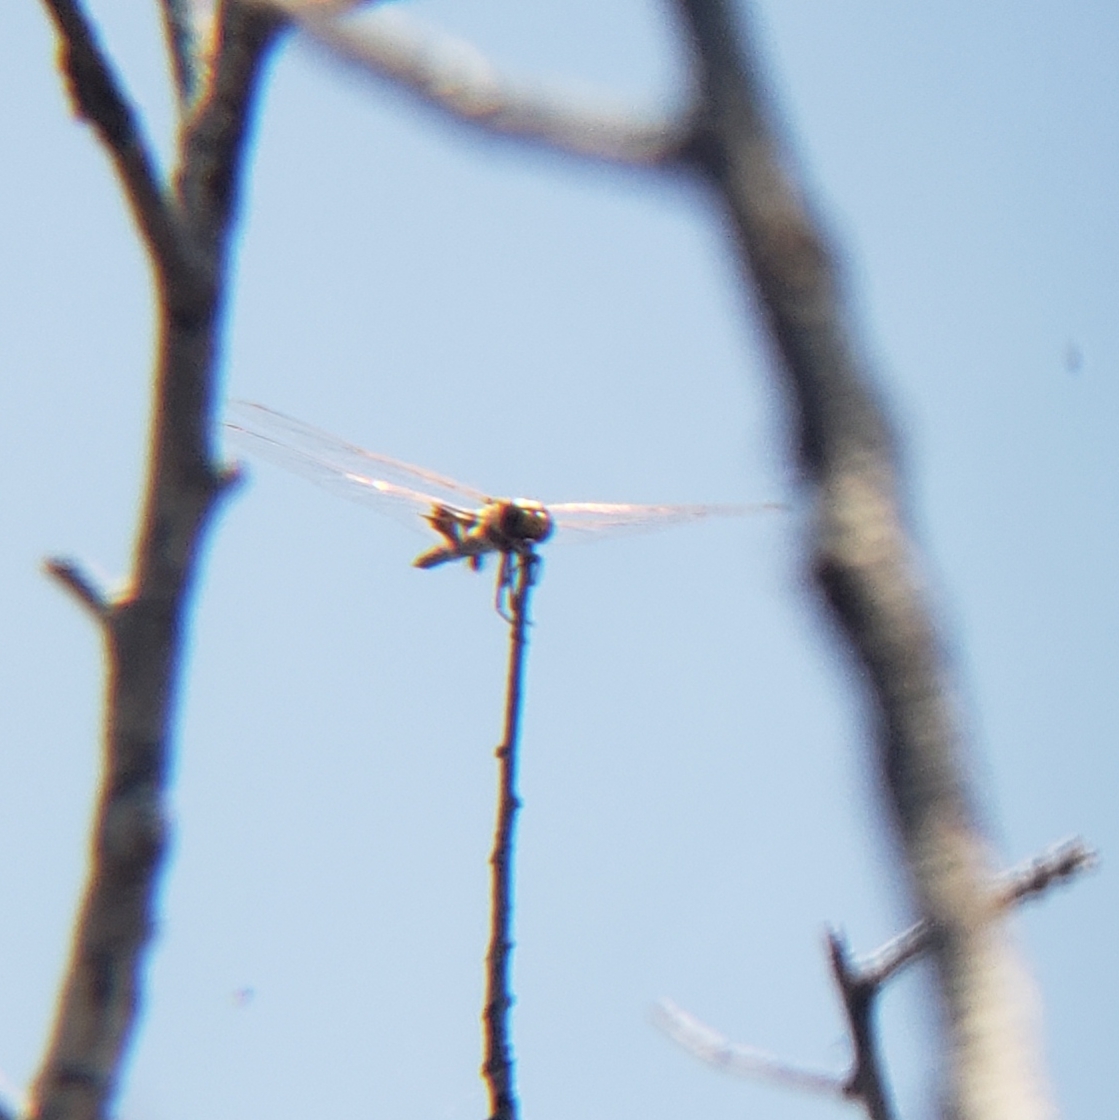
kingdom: Animalia
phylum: Arthropoda
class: Insecta
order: Odonata
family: Libellulidae
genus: Tramea
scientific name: Tramea onusta
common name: Red saddlebags
